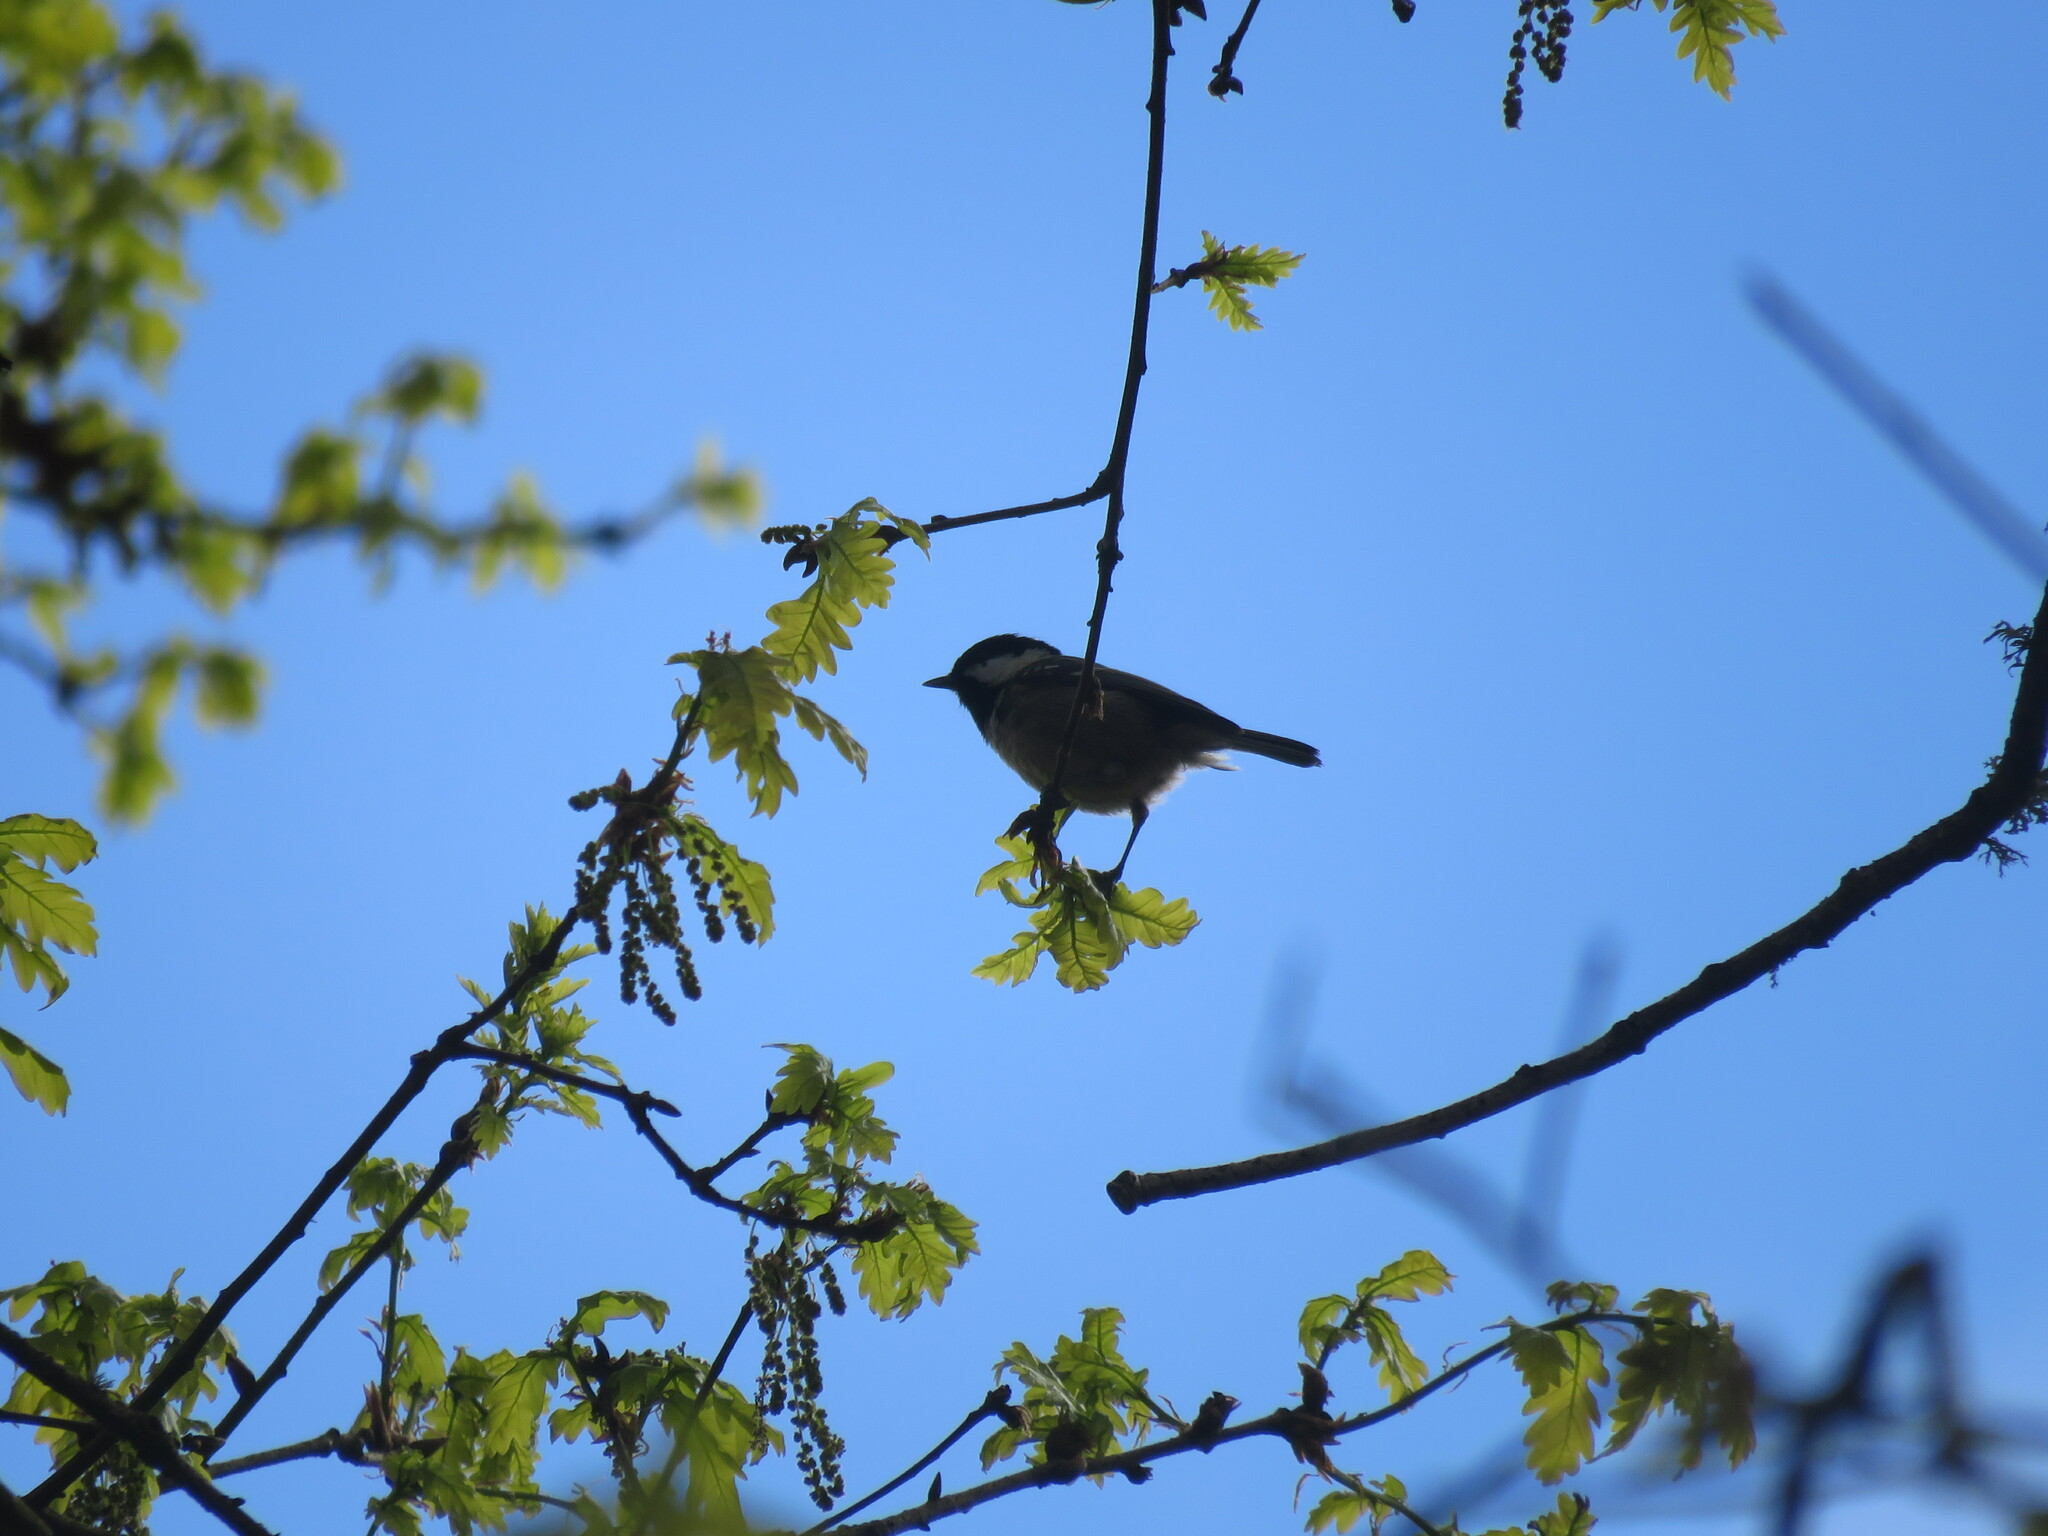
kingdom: Animalia
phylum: Chordata
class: Aves
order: Passeriformes
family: Paridae
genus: Periparus
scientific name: Periparus ater
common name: Coal tit
